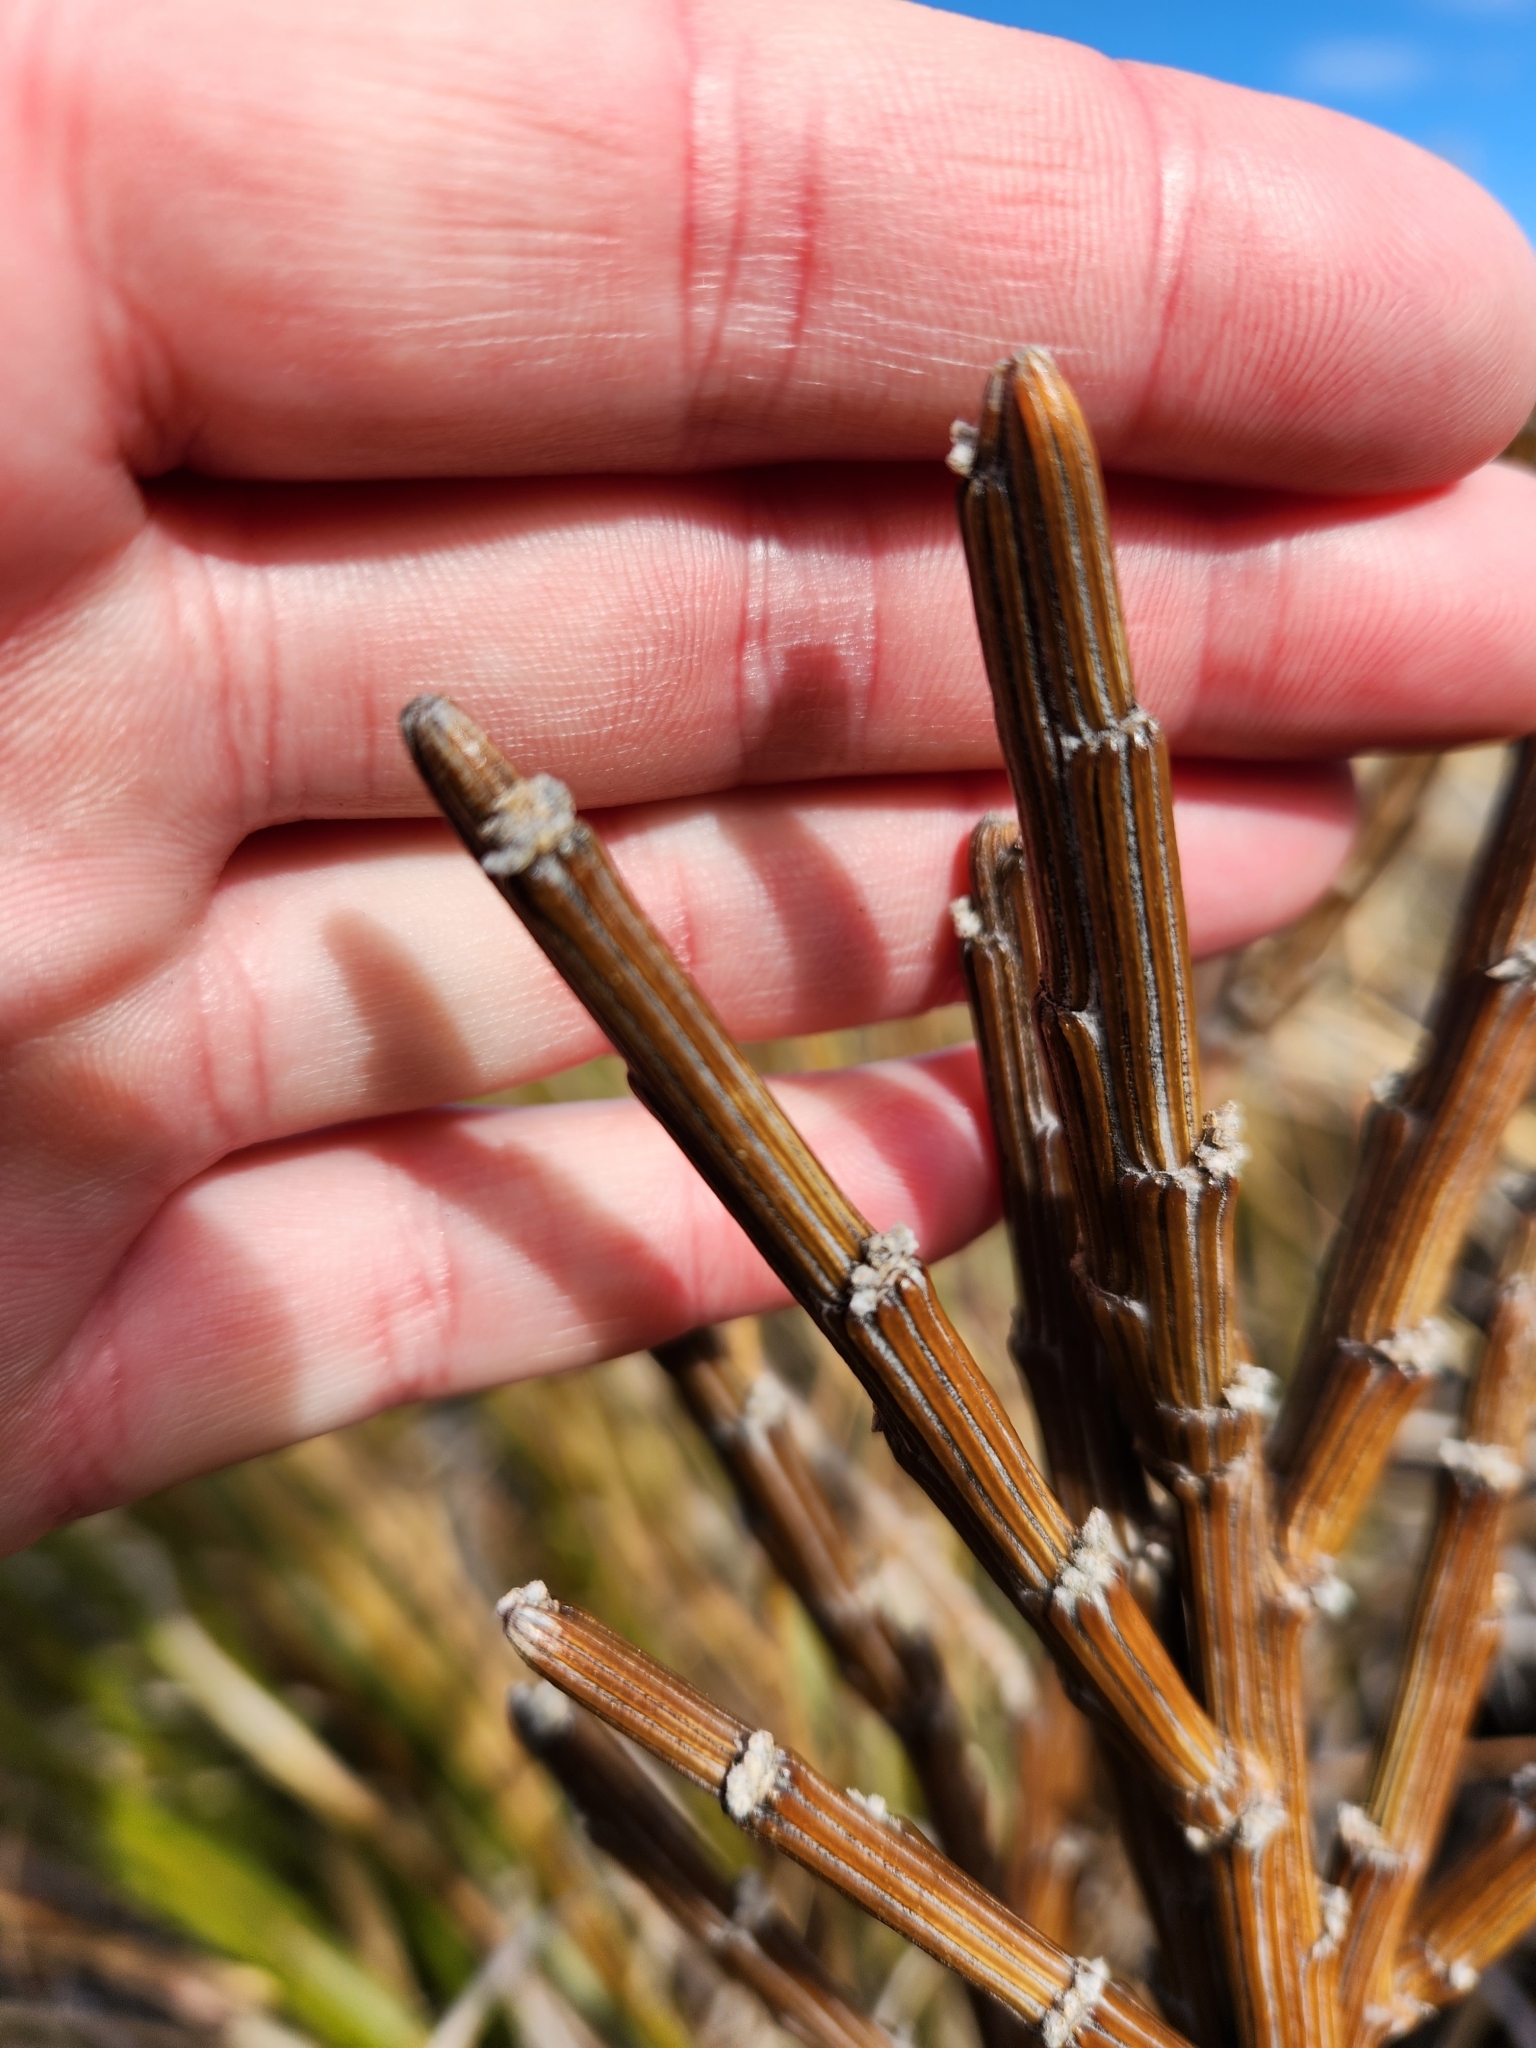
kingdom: Plantae
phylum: Tracheophyta
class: Magnoliopsida
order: Fabales
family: Fabaceae
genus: Carmichaelia
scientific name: Carmichaelia crassicaulis
